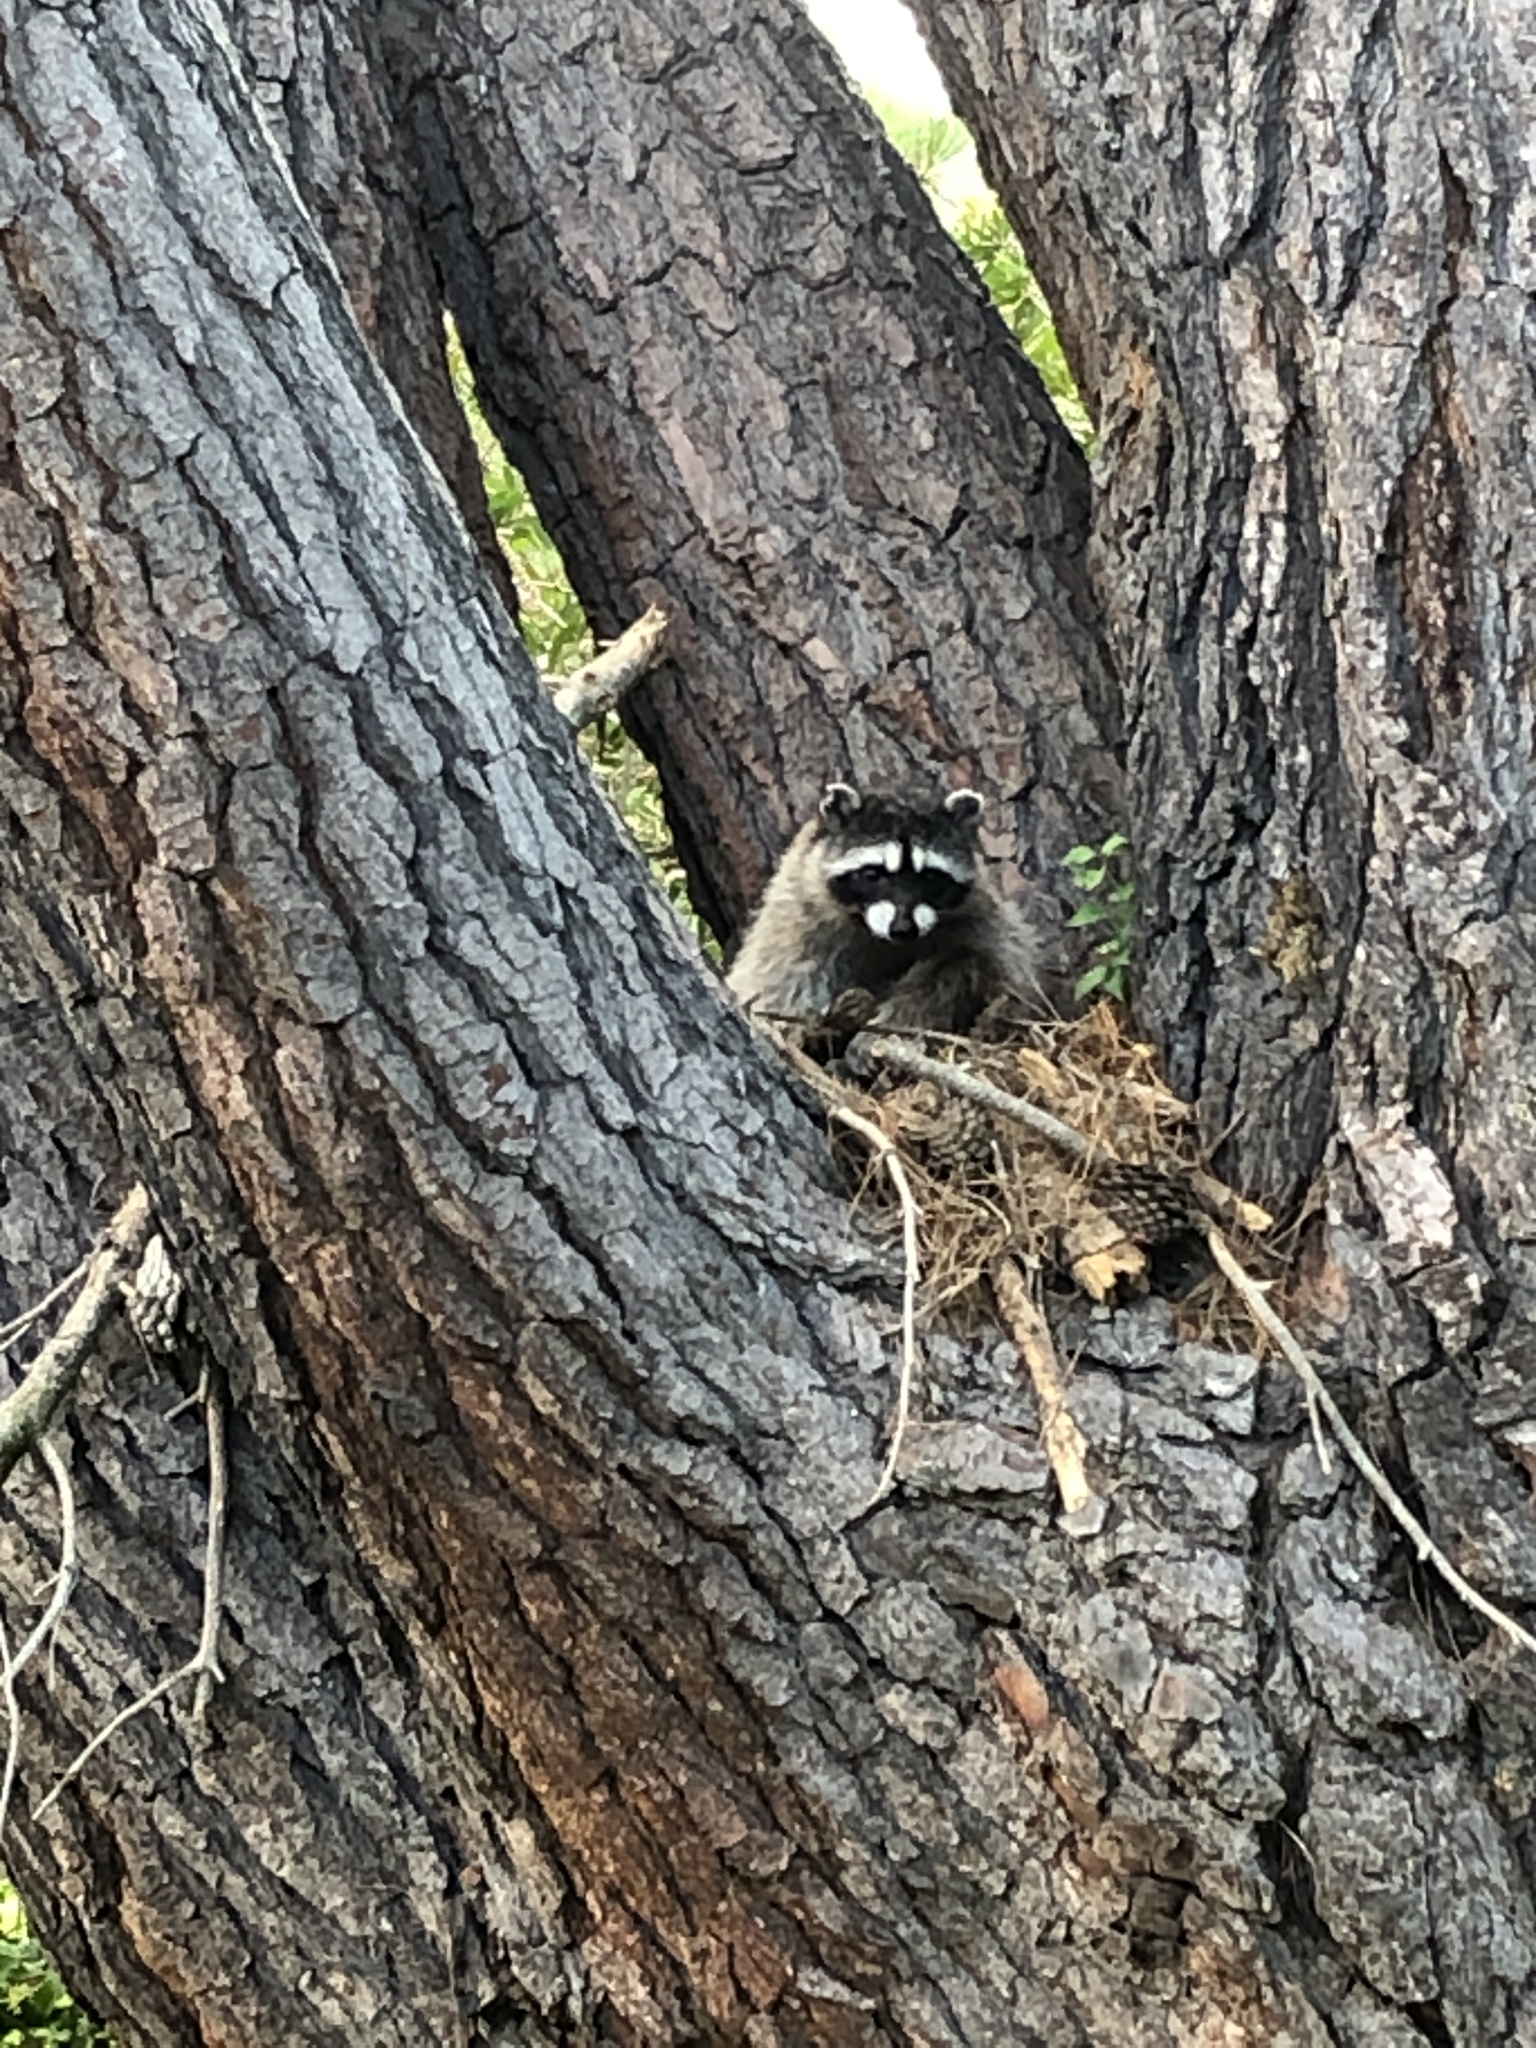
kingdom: Animalia
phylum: Chordata
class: Mammalia
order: Carnivora
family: Procyonidae
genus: Procyon
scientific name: Procyon lotor
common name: Raccoon
